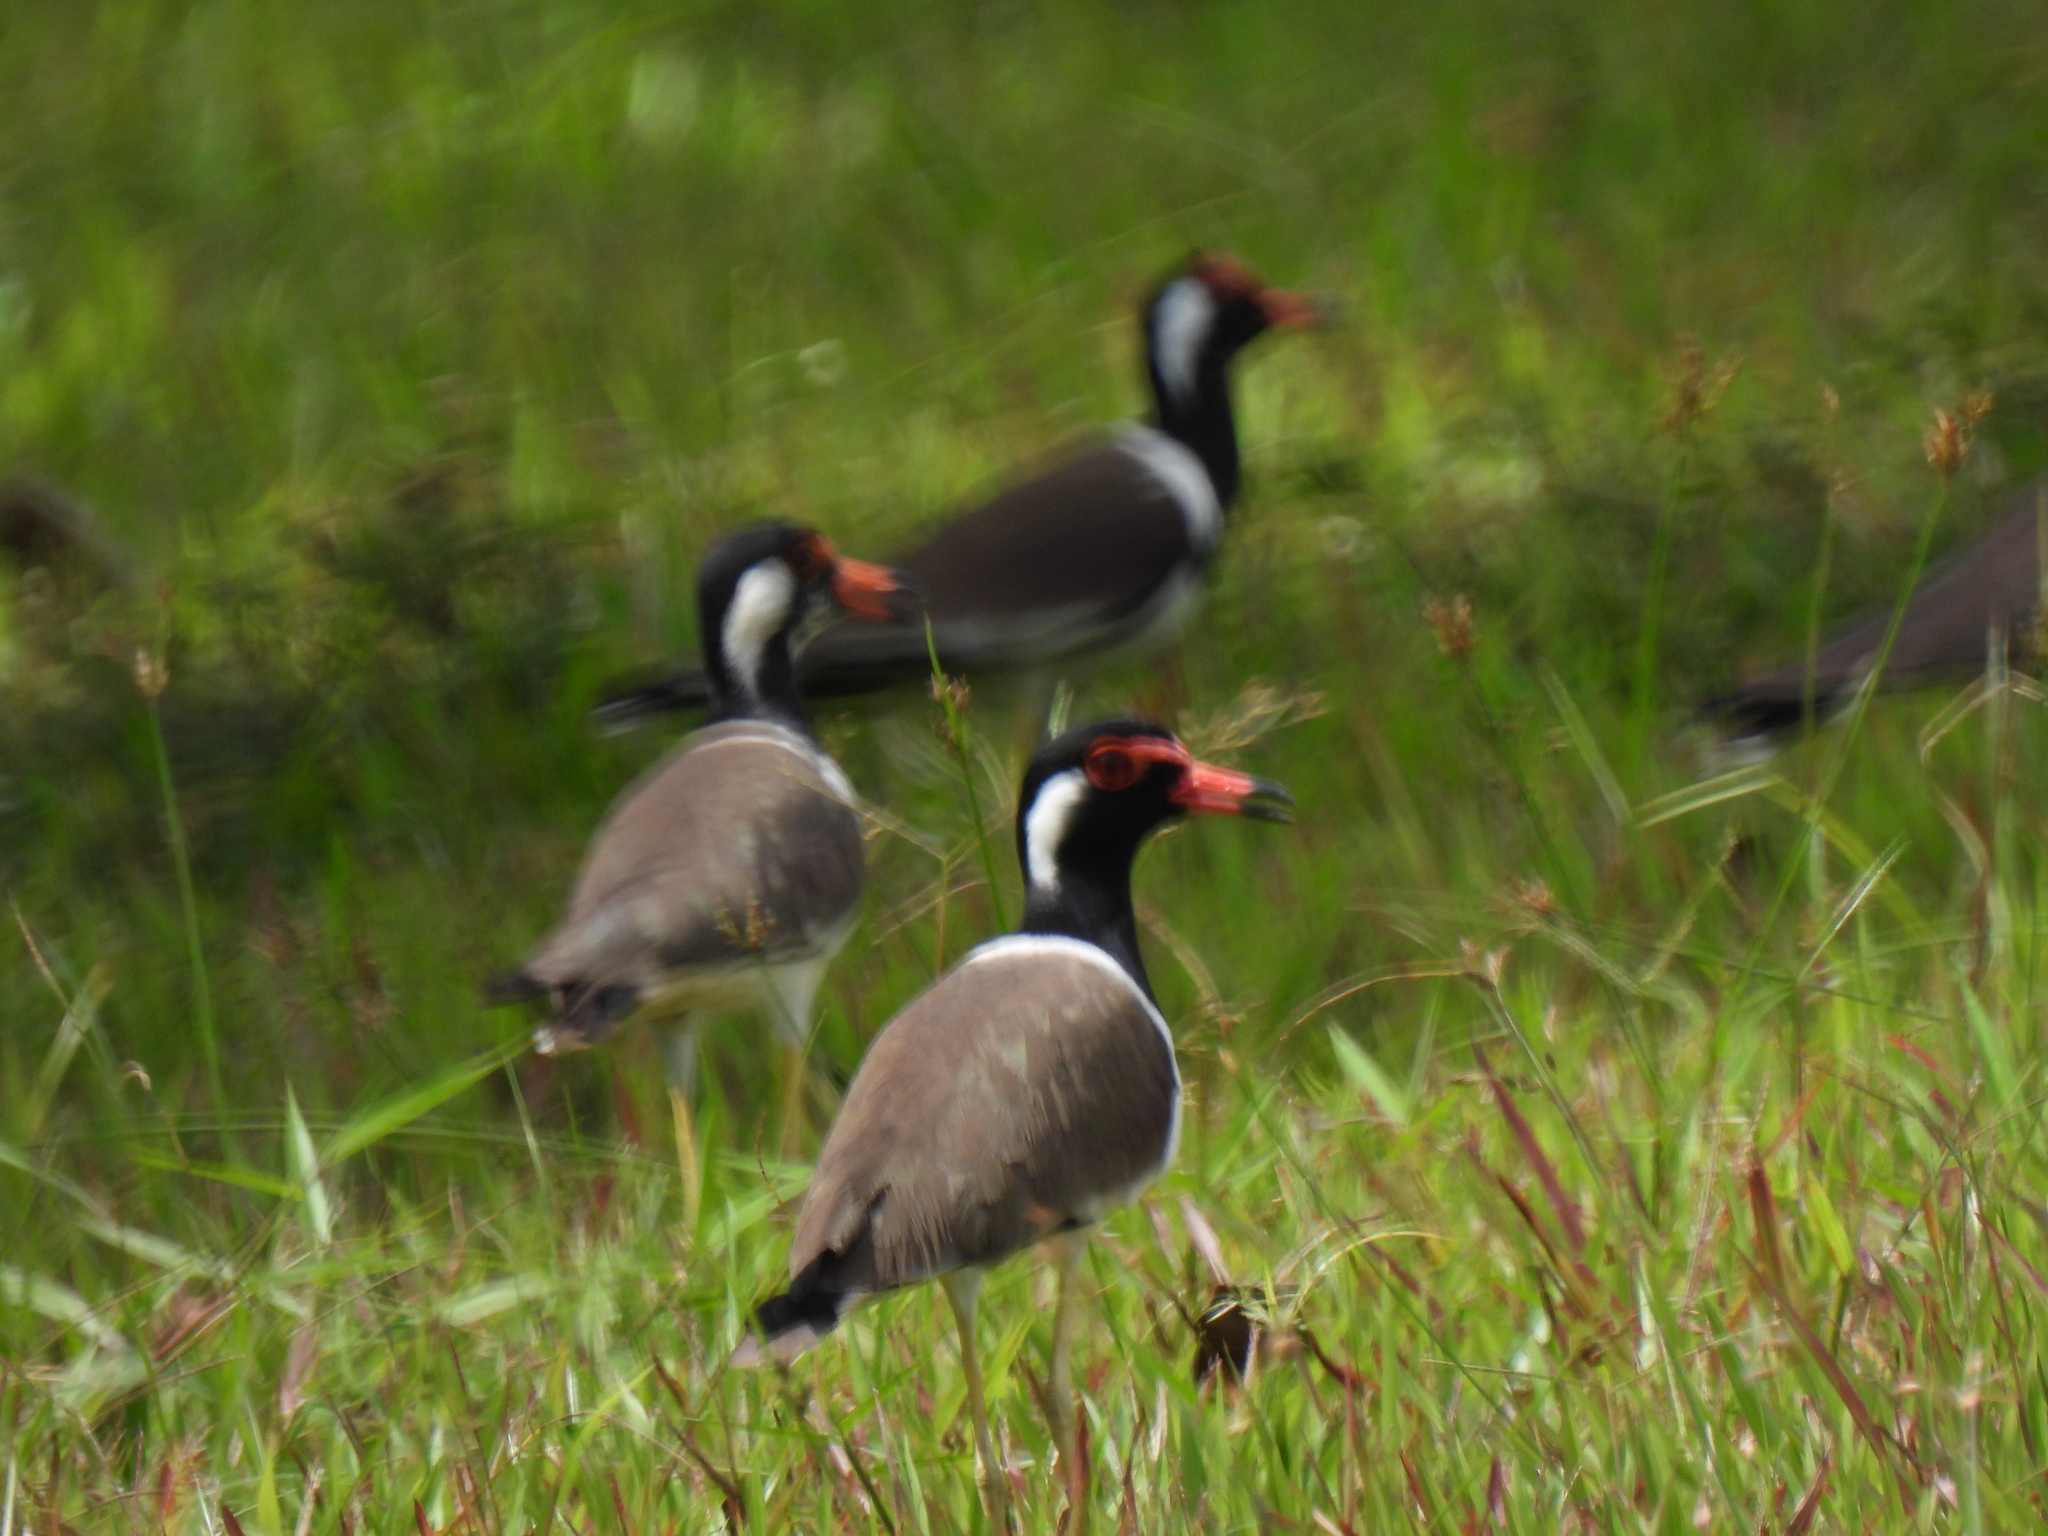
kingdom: Animalia
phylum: Chordata
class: Aves
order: Charadriiformes
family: Charadriidae
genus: Vanellus
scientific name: Vanellus indicus
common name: Red-wattled lapwing
